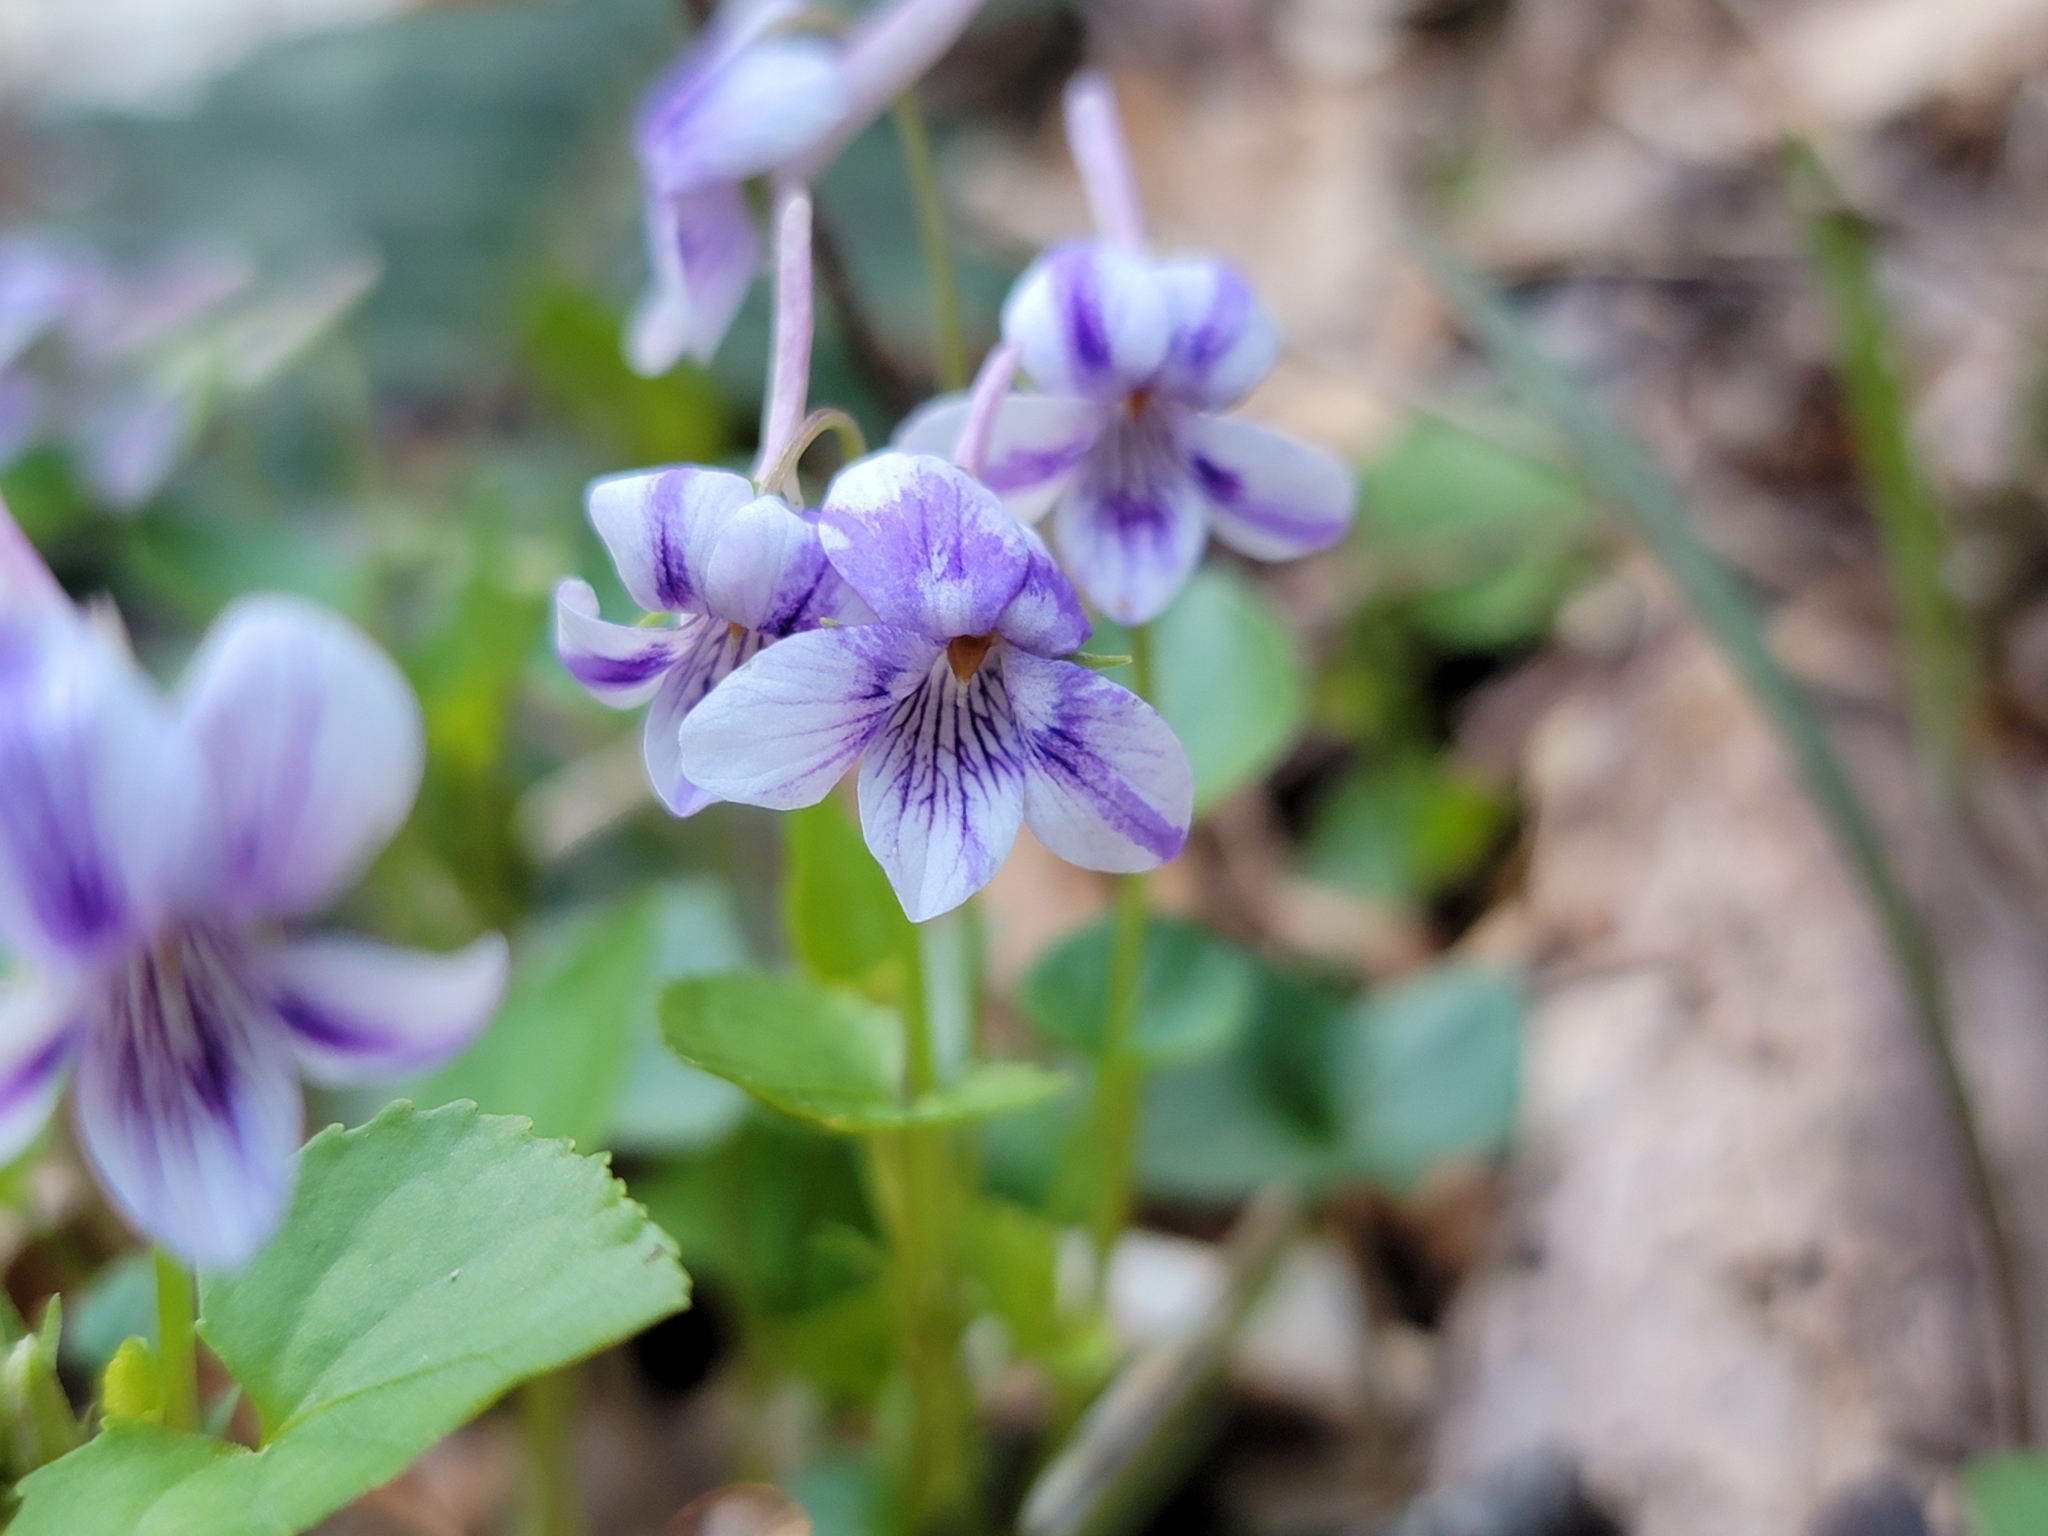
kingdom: Plantae
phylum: Tracheophyta
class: Magnoliopsida
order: Malpighiales
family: Violaceae
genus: Viola
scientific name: Viola rostrata
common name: Long-spur violet
